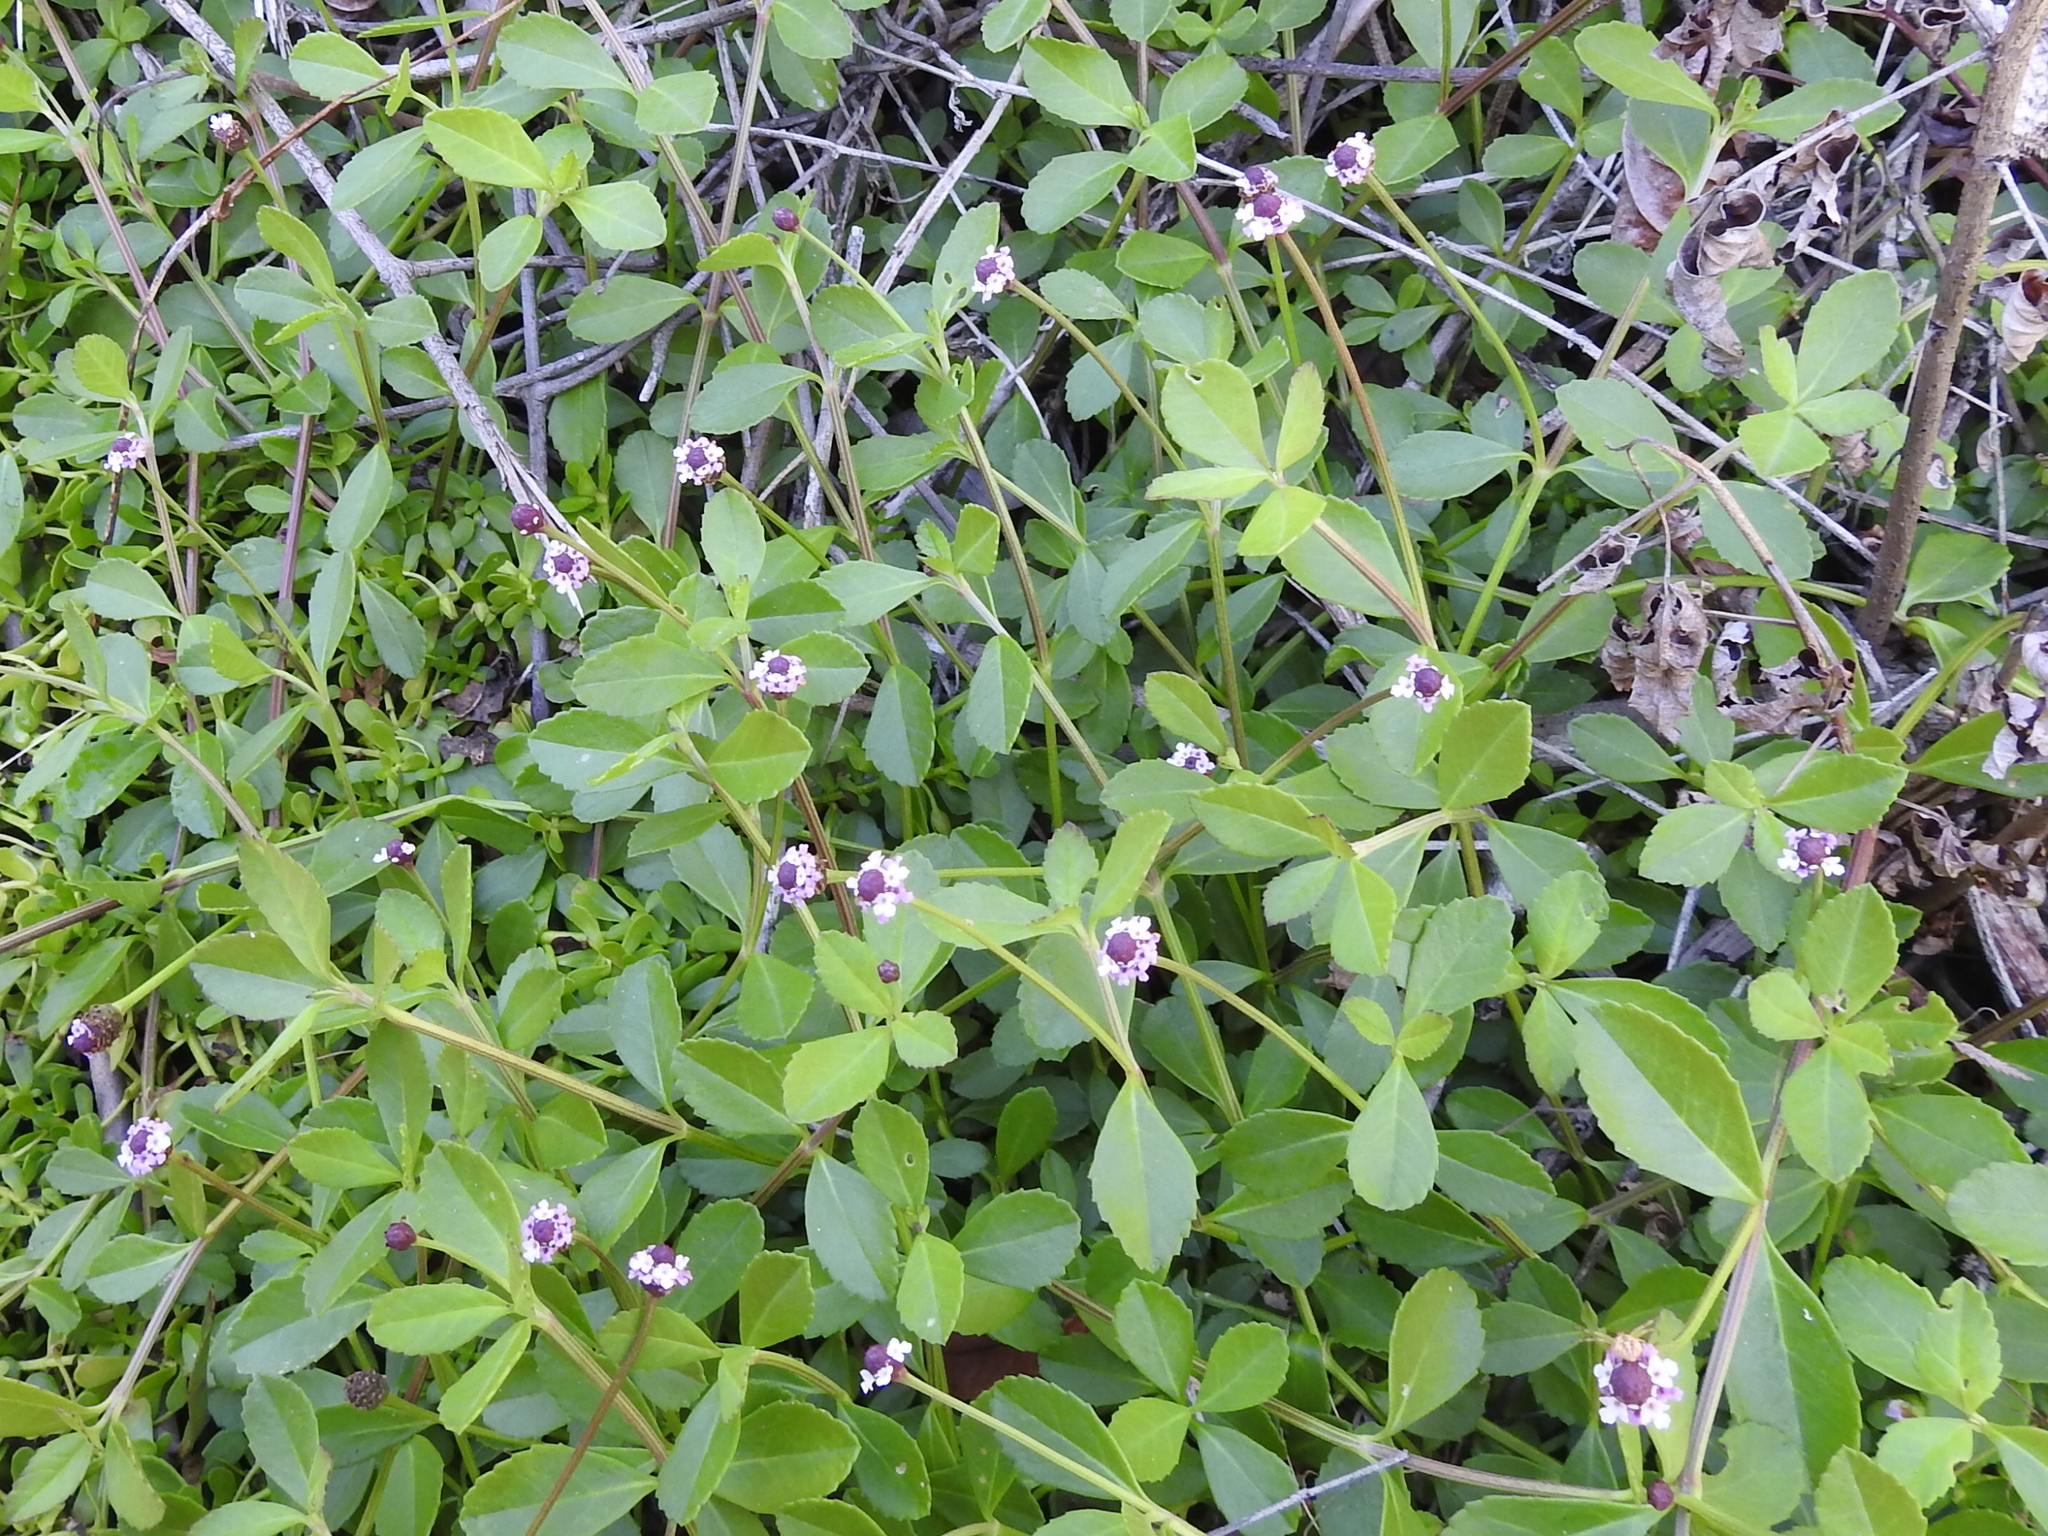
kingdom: Plantae
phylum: Tracheophyta
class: Magnoliopsida
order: Lamiales
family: Verbenaceae
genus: Phyla
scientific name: Phyla nodiflora
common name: Frogfruit
